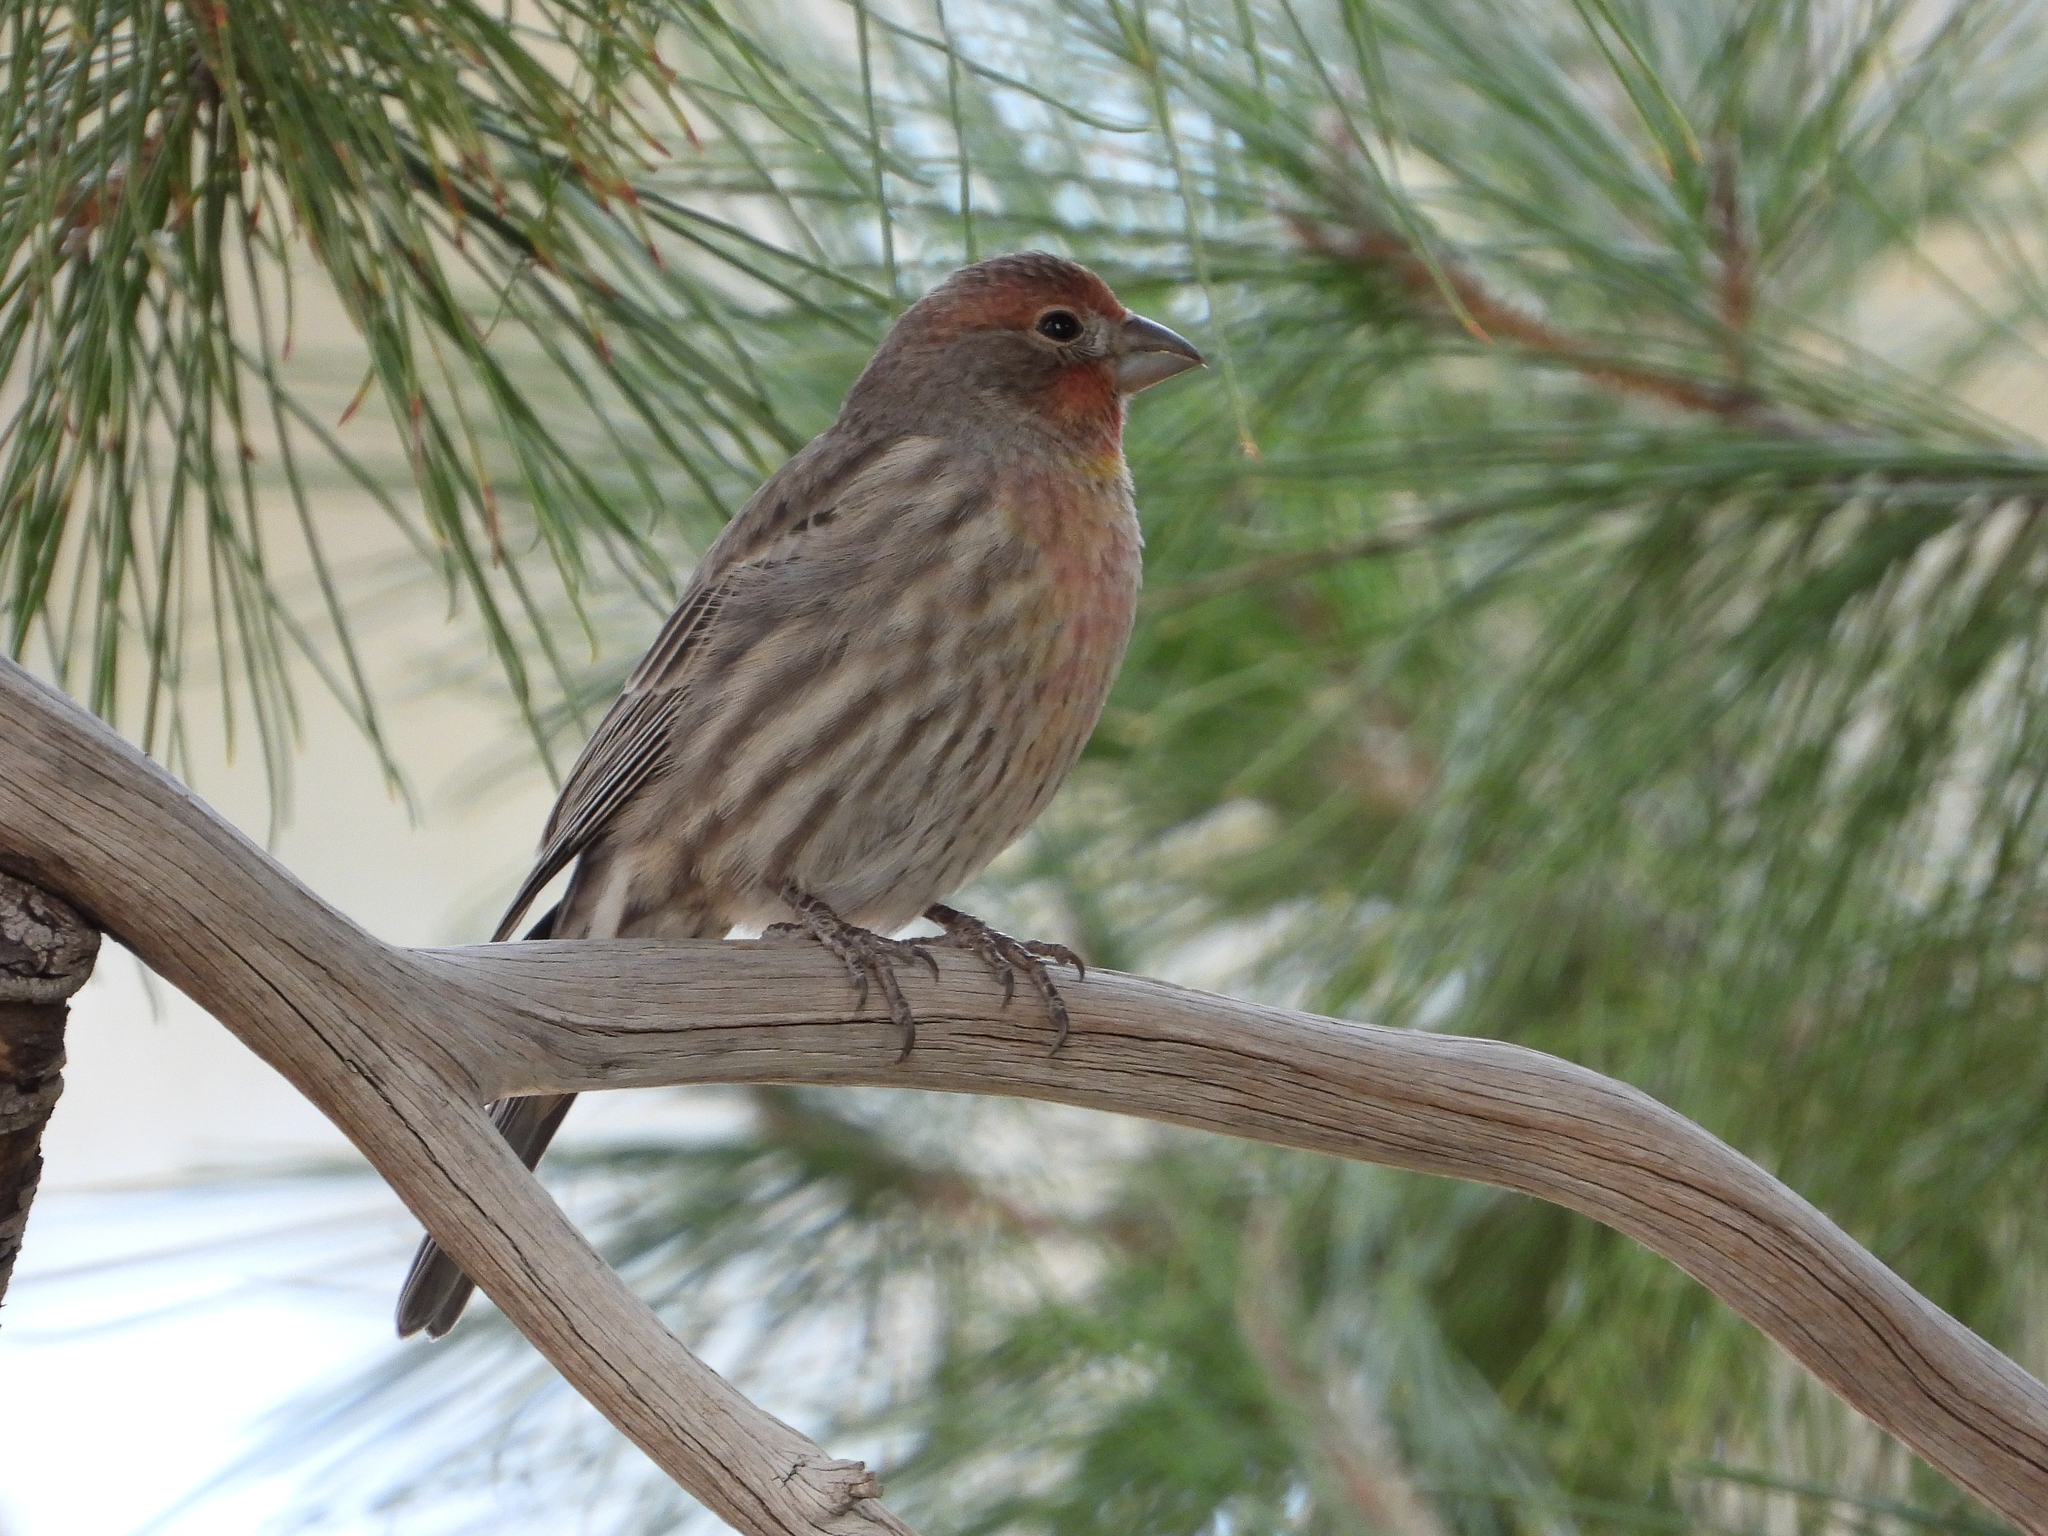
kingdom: Animalia
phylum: Chordata
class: Aves
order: Passeriformes
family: Fringillidae
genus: Haemorhous
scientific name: Haemorhous mexicanus
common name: House finch
